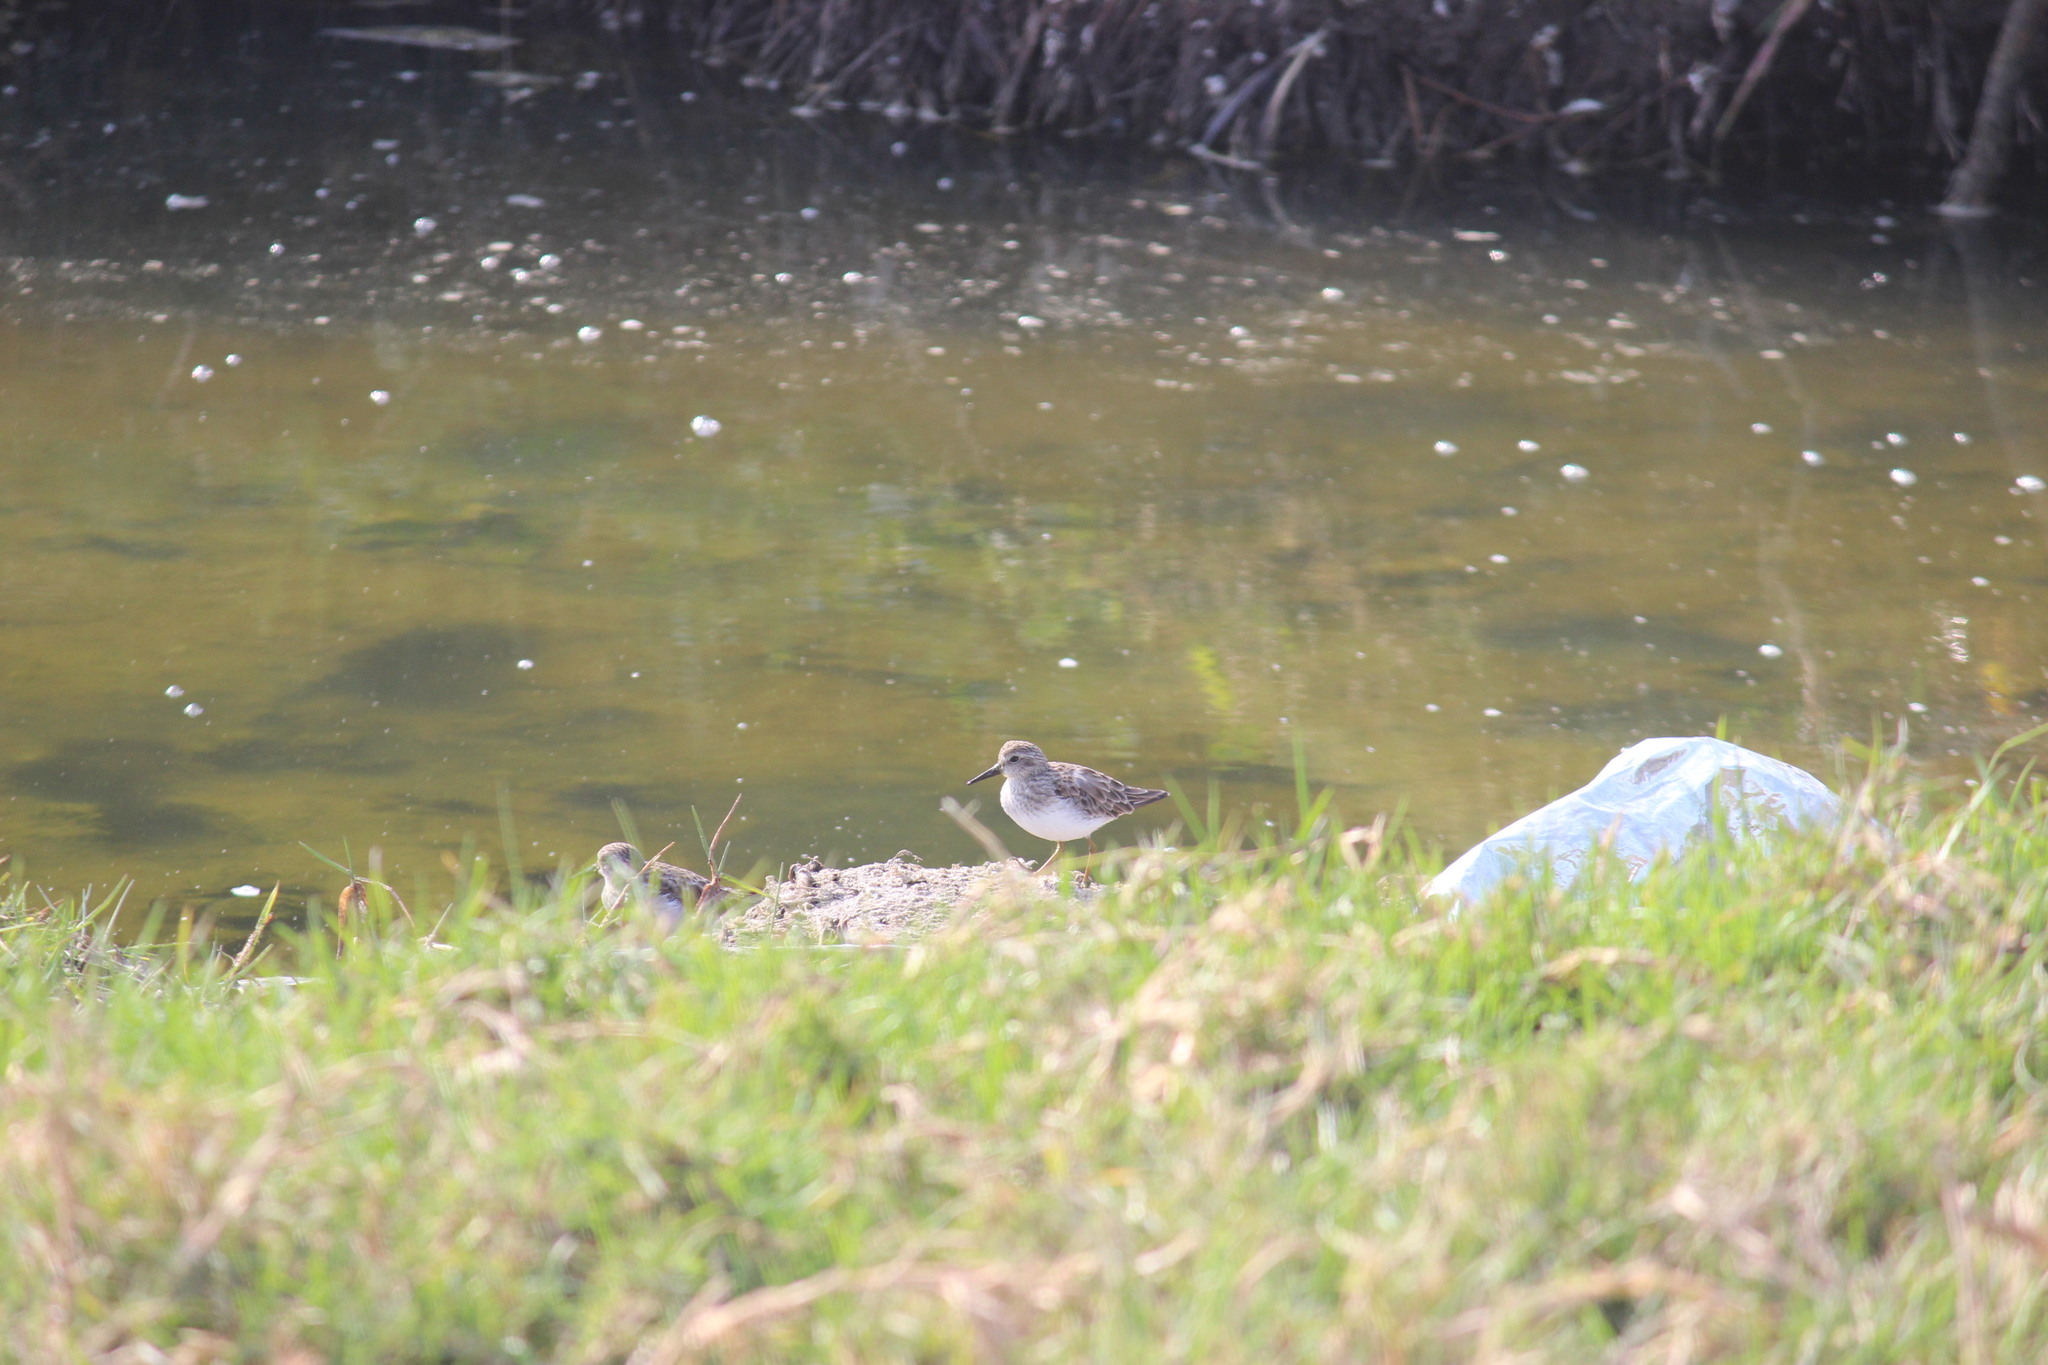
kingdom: Animalia
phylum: Chordata
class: Aves
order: Charadriiformes
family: Scolopacidae
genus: Calidris
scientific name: Calidris minutilla
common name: Least sandpiper
